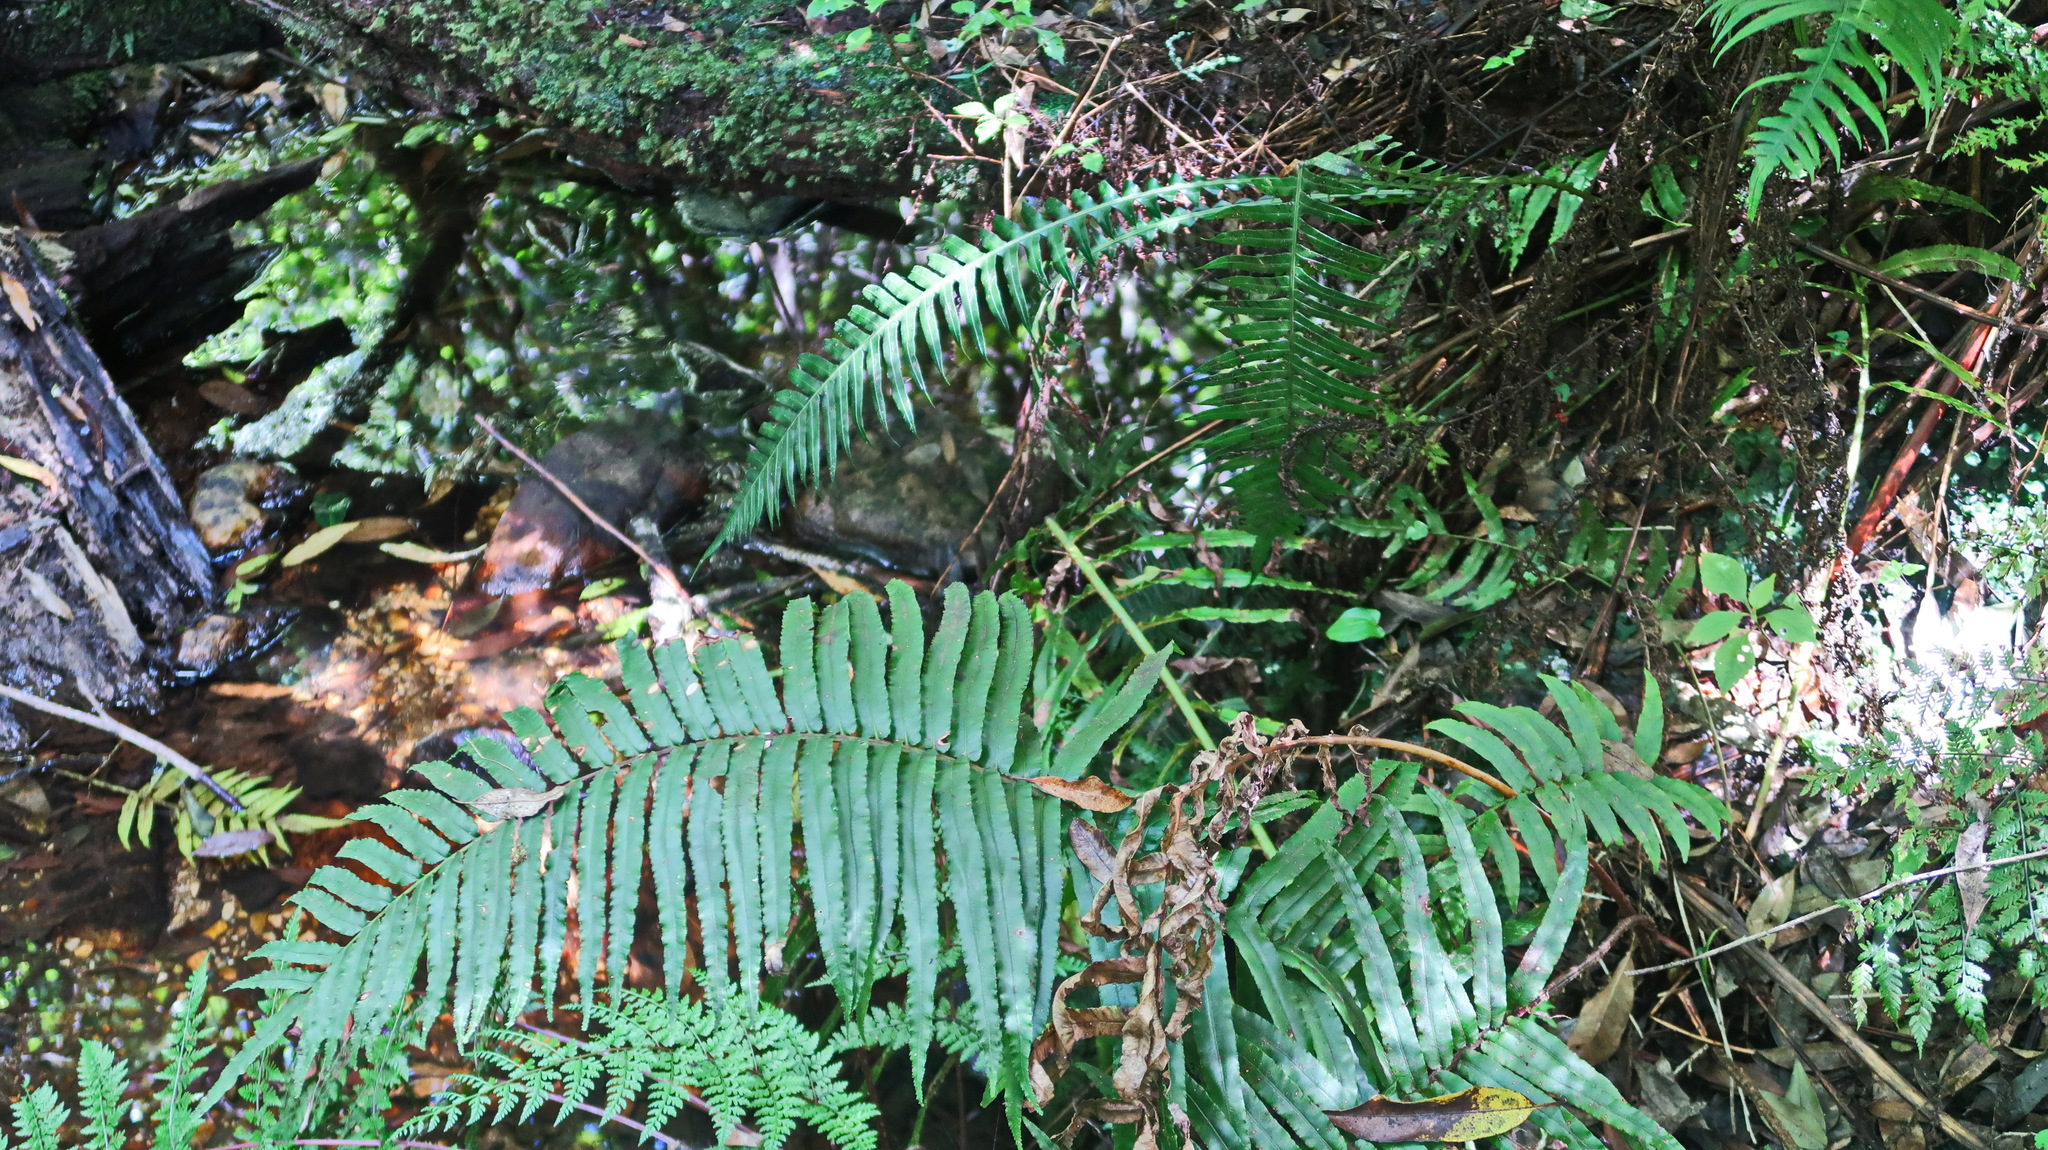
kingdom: Plantae
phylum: Tracheophyta
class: Polypodiopsida
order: Polypodiales
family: Blechnaceae
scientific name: Blechnaceae
